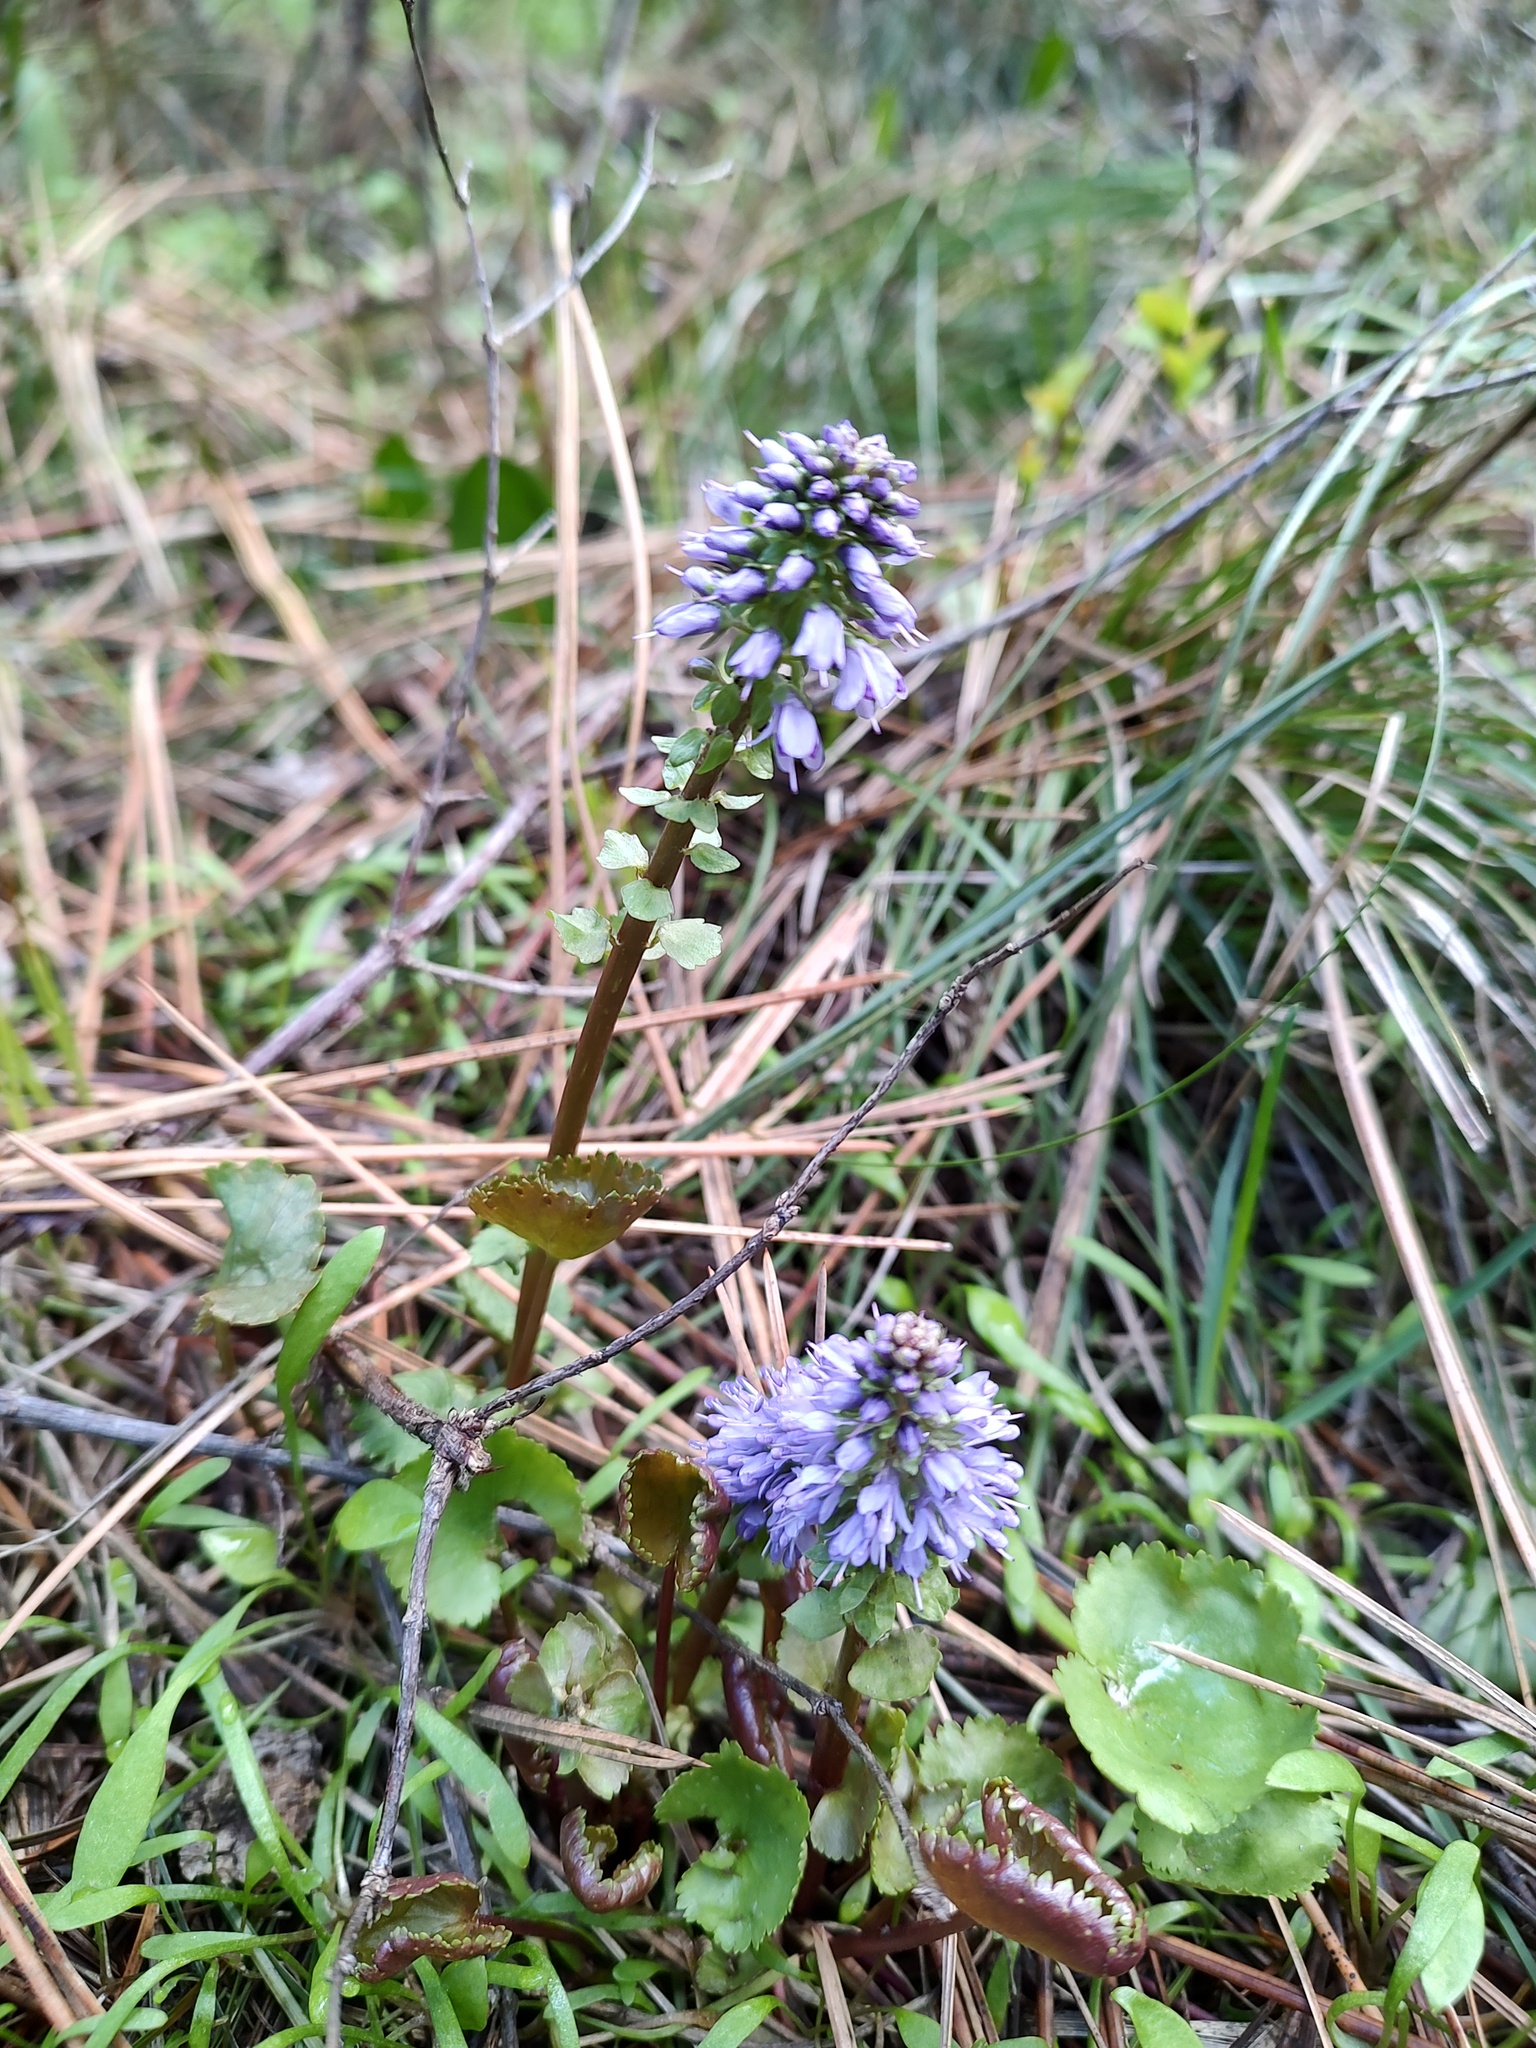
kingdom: Plantae
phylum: Tracheophyta
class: Magnoliopsida
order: Lamiales
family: Plantaginaceae
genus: Synthyris
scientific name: Synthyris missurica
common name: Kitten-tails
